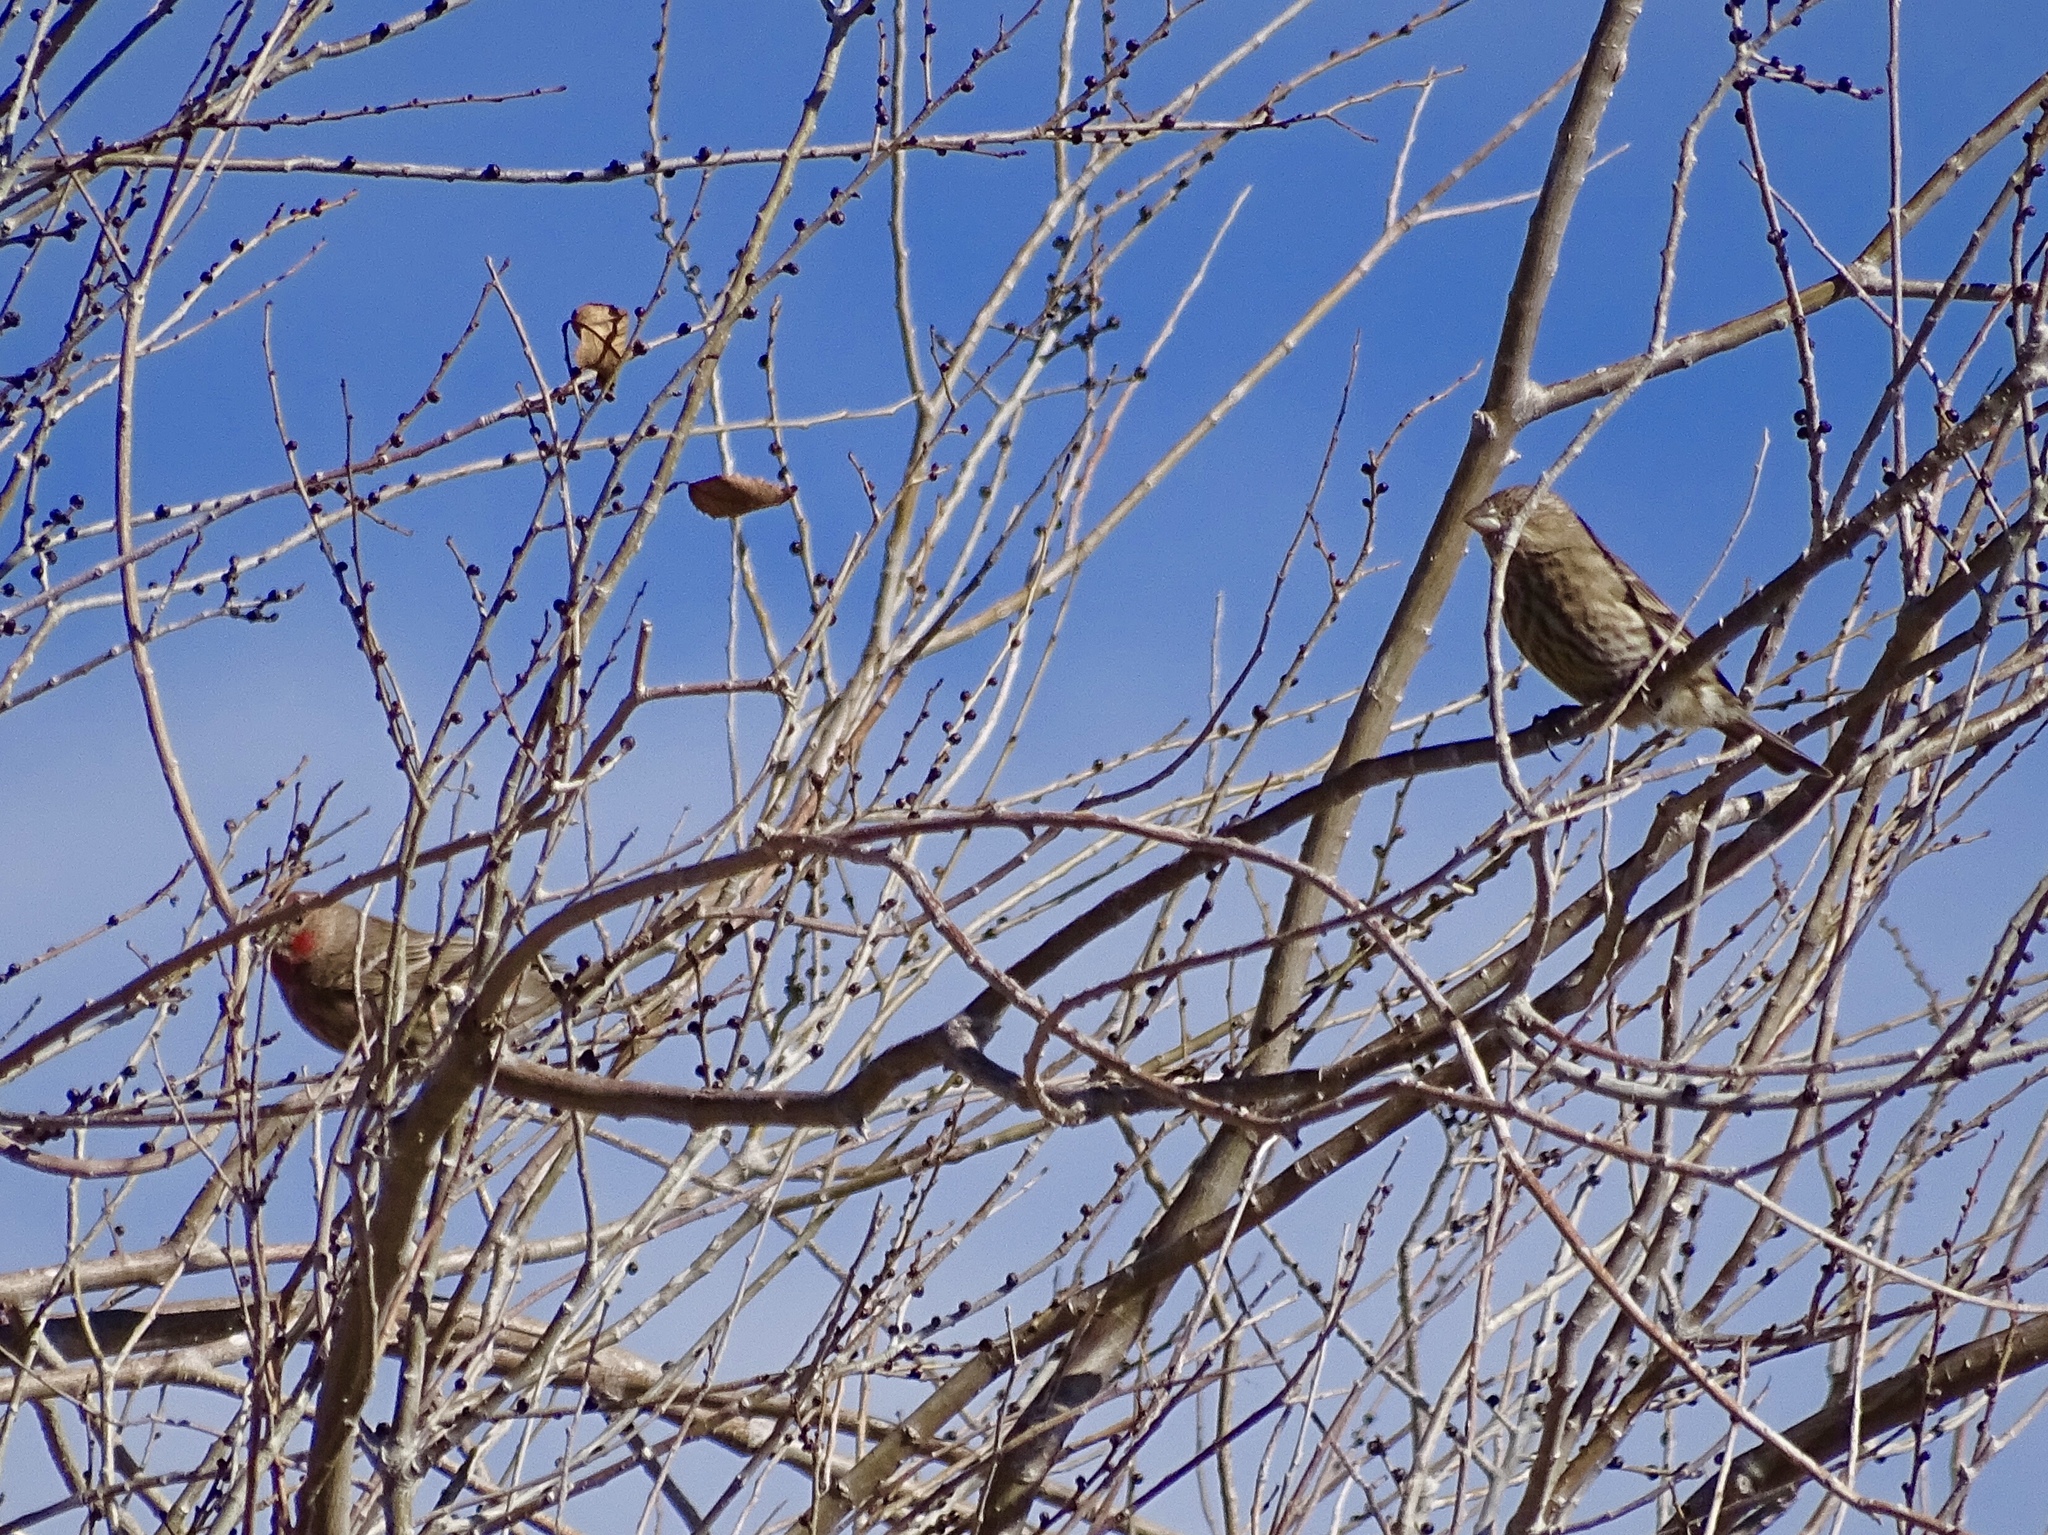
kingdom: Animalia
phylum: Chordata
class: Aves
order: Passeriformes
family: Fringillidae
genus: Haemorhous
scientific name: Haemorhous mexicanus
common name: House finch
